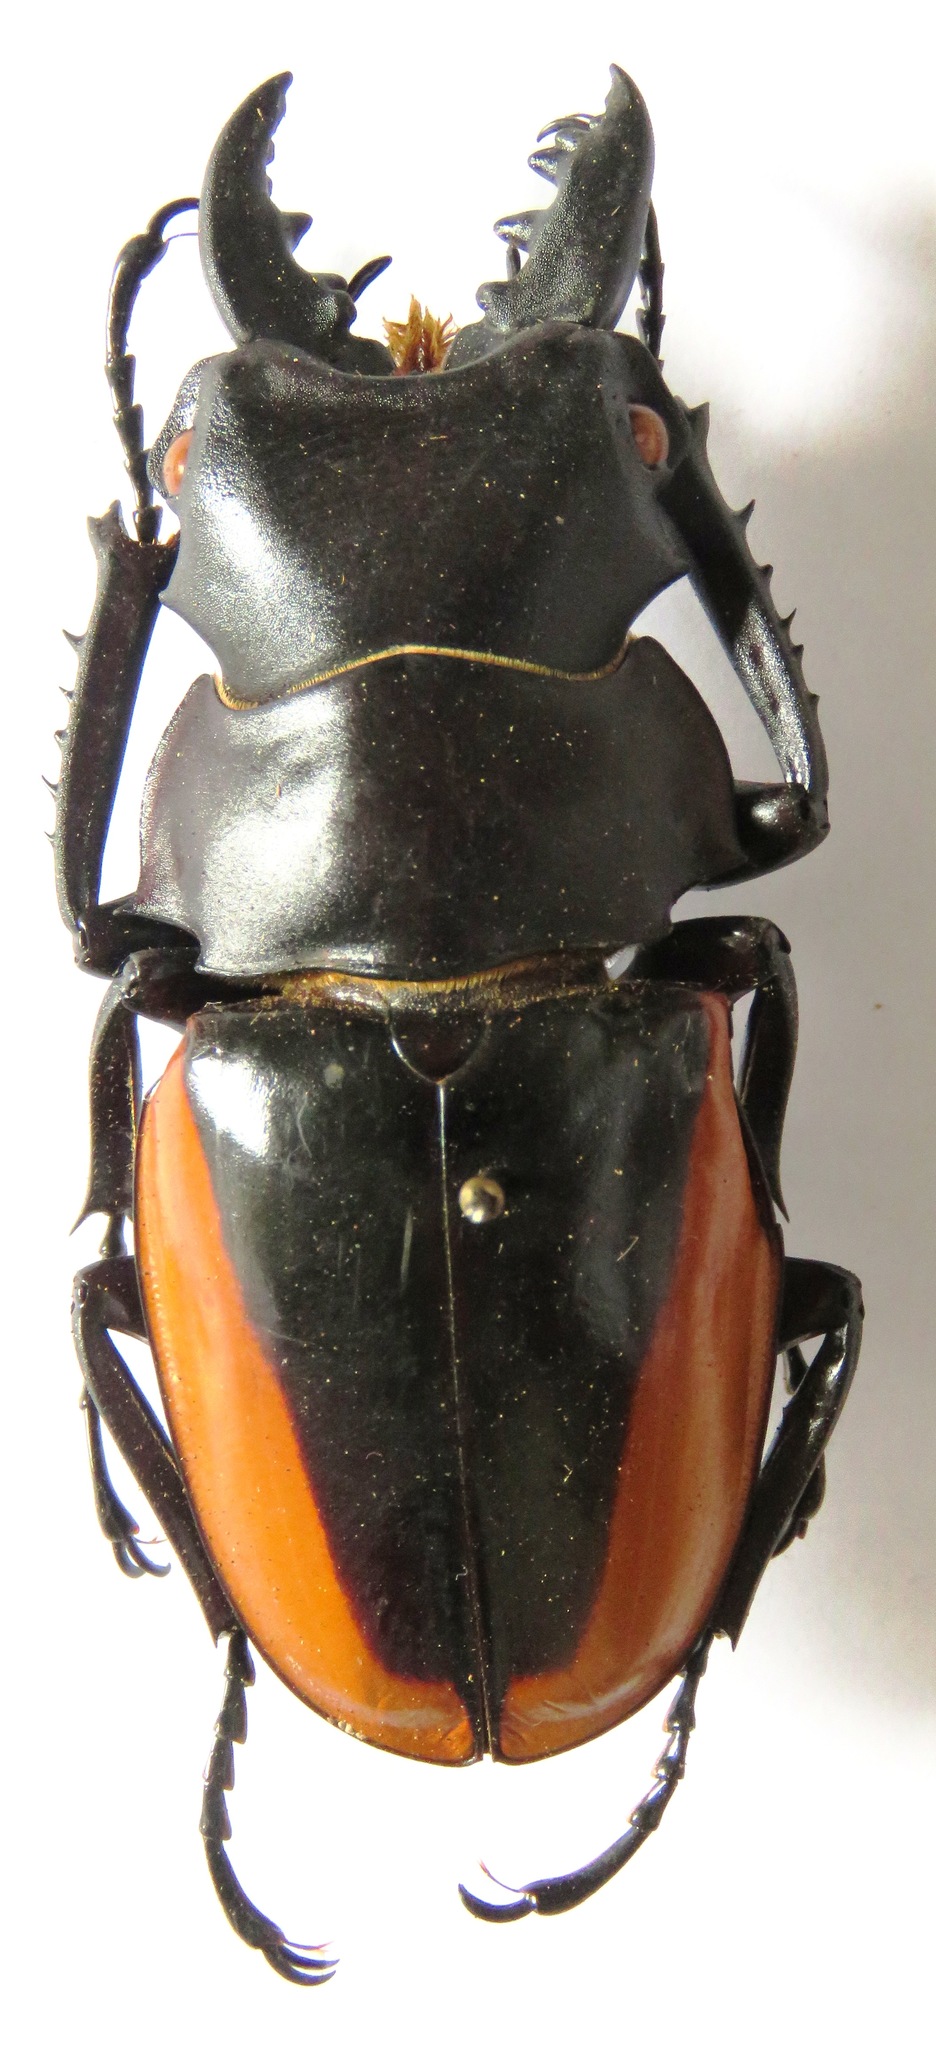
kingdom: Animalia
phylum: Arthropoda
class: Insecta
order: Coleoptera
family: Lucanidae
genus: Odontolabis
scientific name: Odontolabis cuvera
